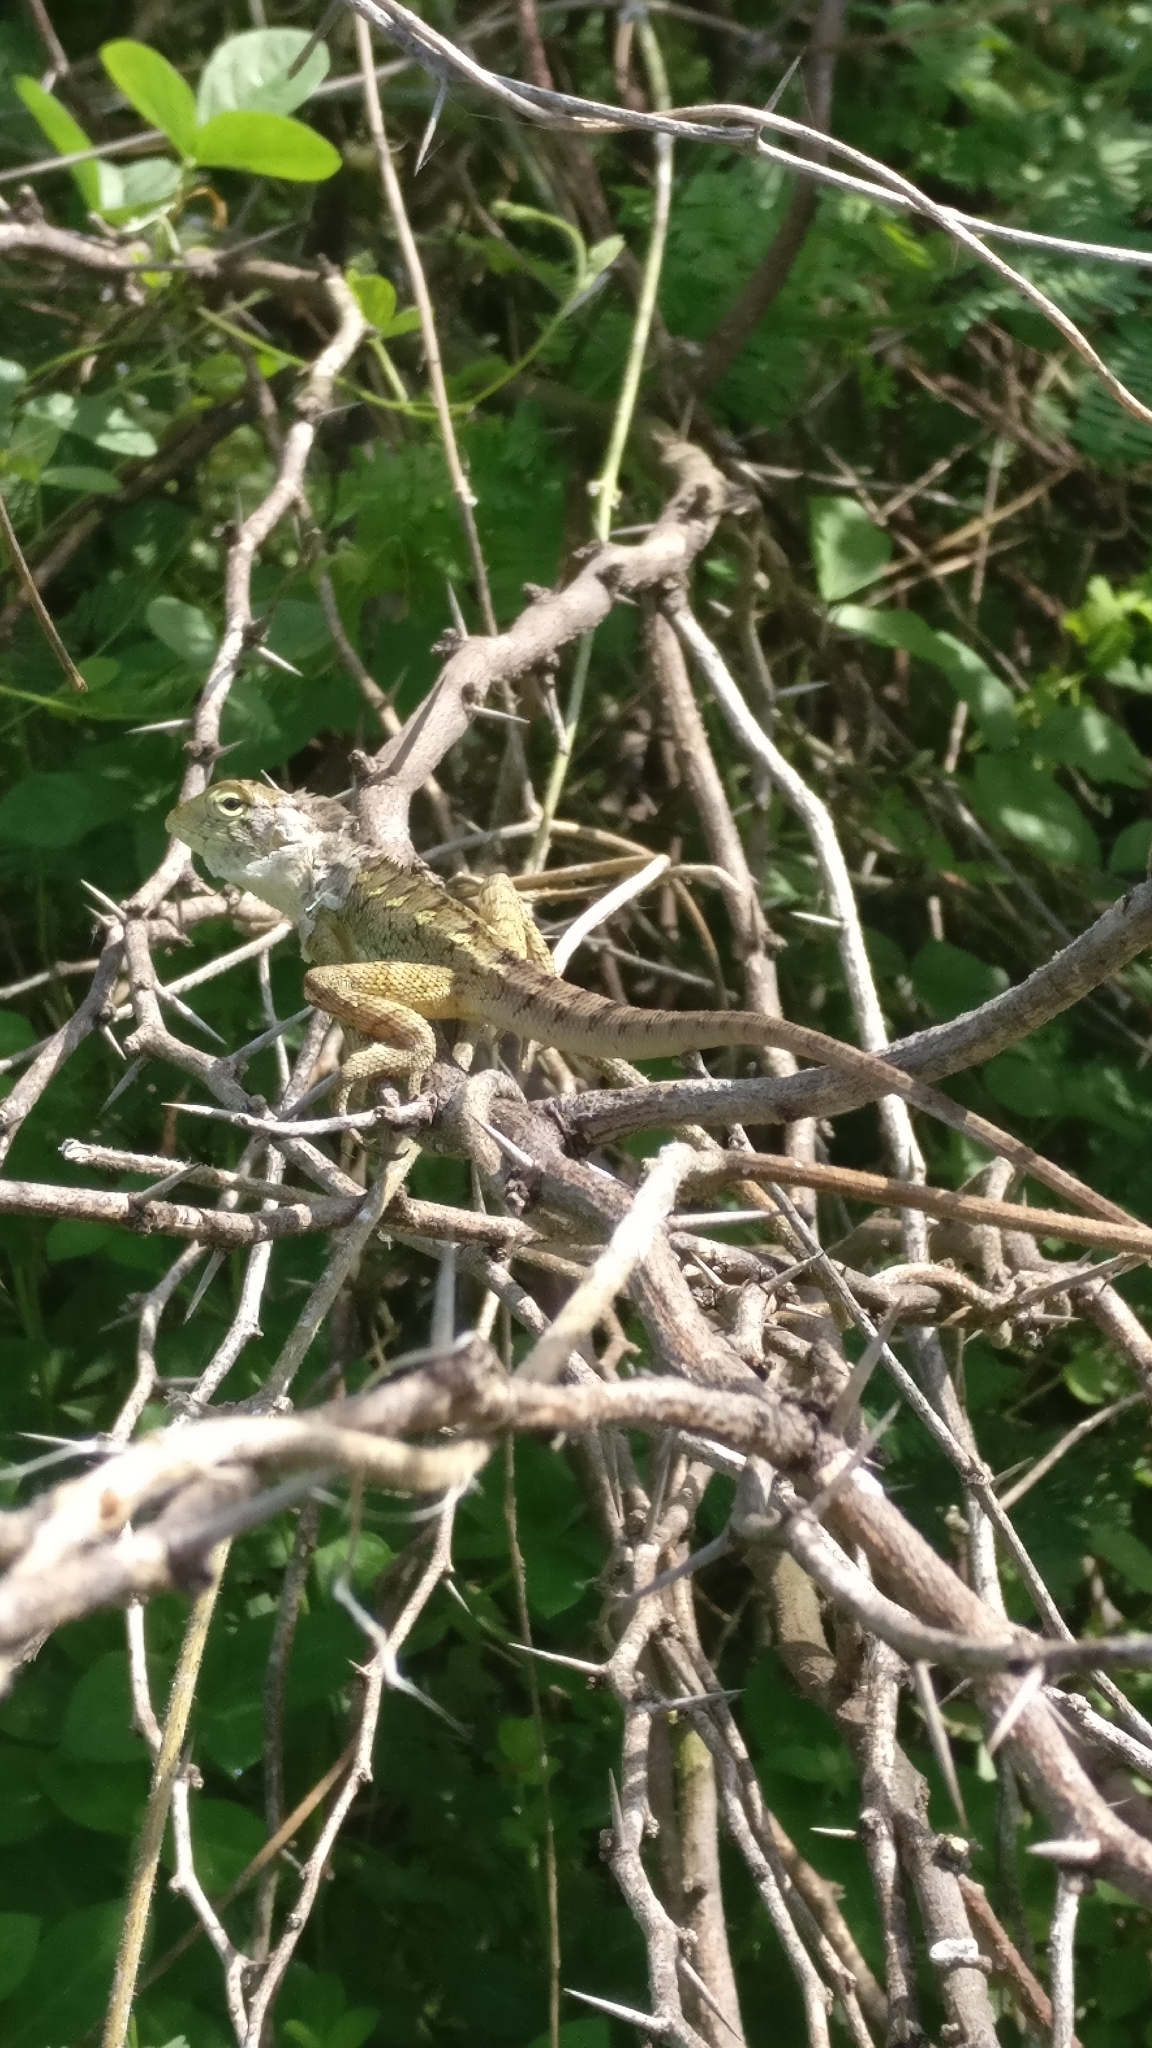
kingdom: Animalia
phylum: Chordata
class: Squamata
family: Agamidae
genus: Calotes
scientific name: Calotes versicolor
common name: Oriental garden lizard
